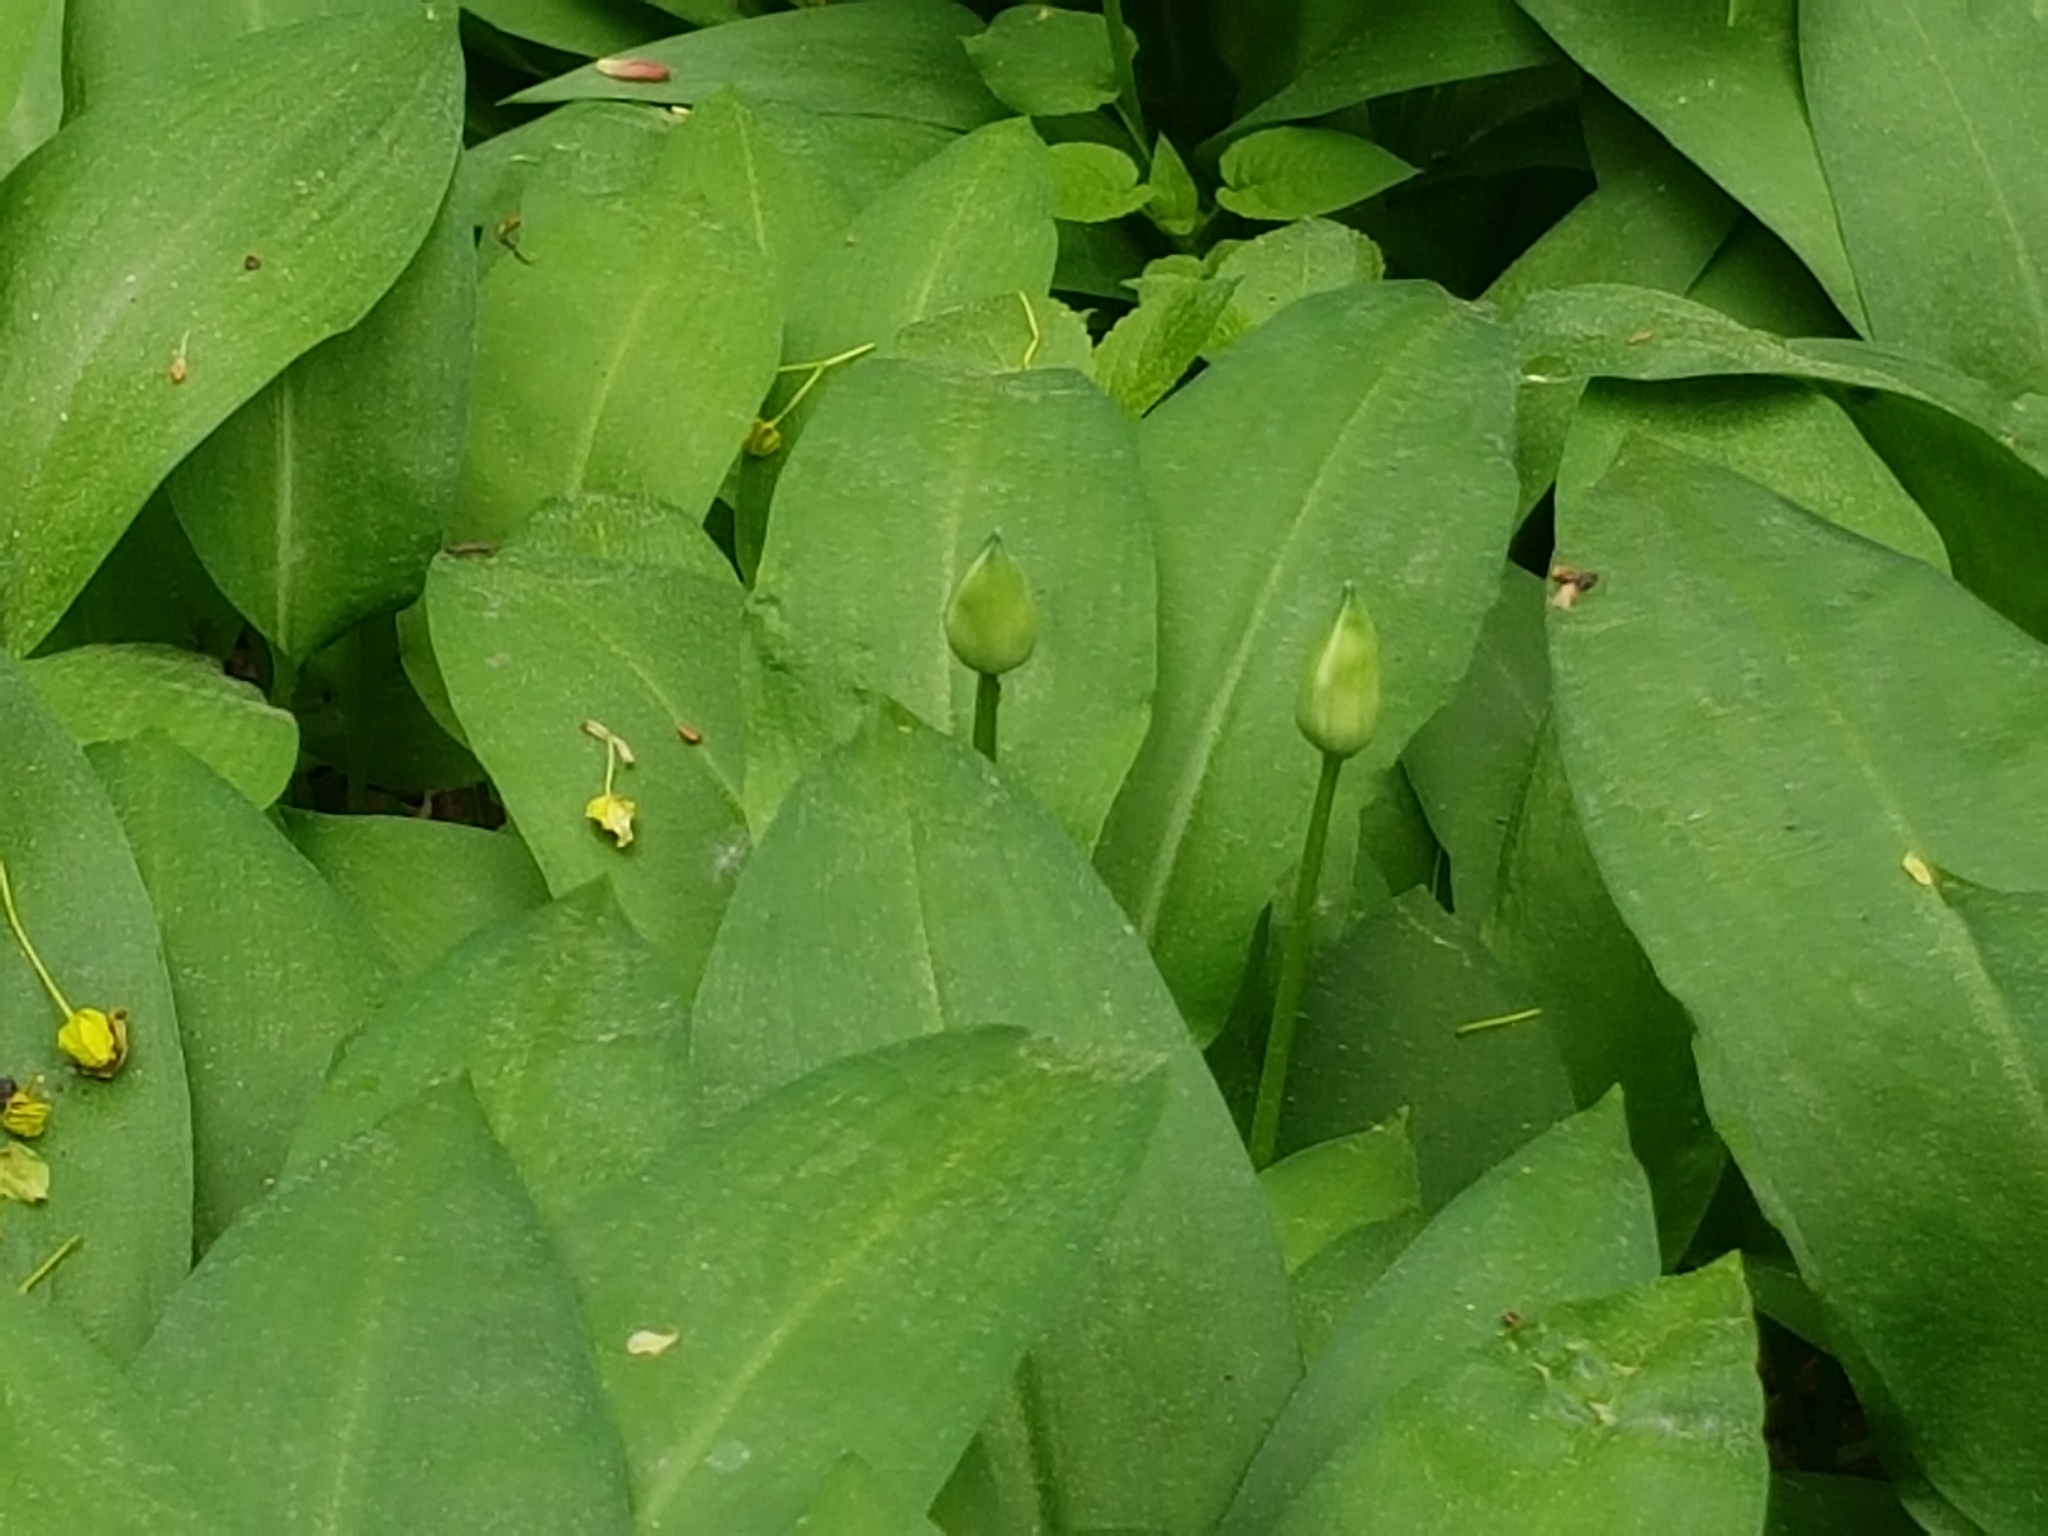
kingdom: Plantae
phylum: Tracheophyta
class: Liliopsida
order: Asparagales
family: Amaryllidaceae
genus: Allium
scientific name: Allium ursinum
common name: Ramsons
